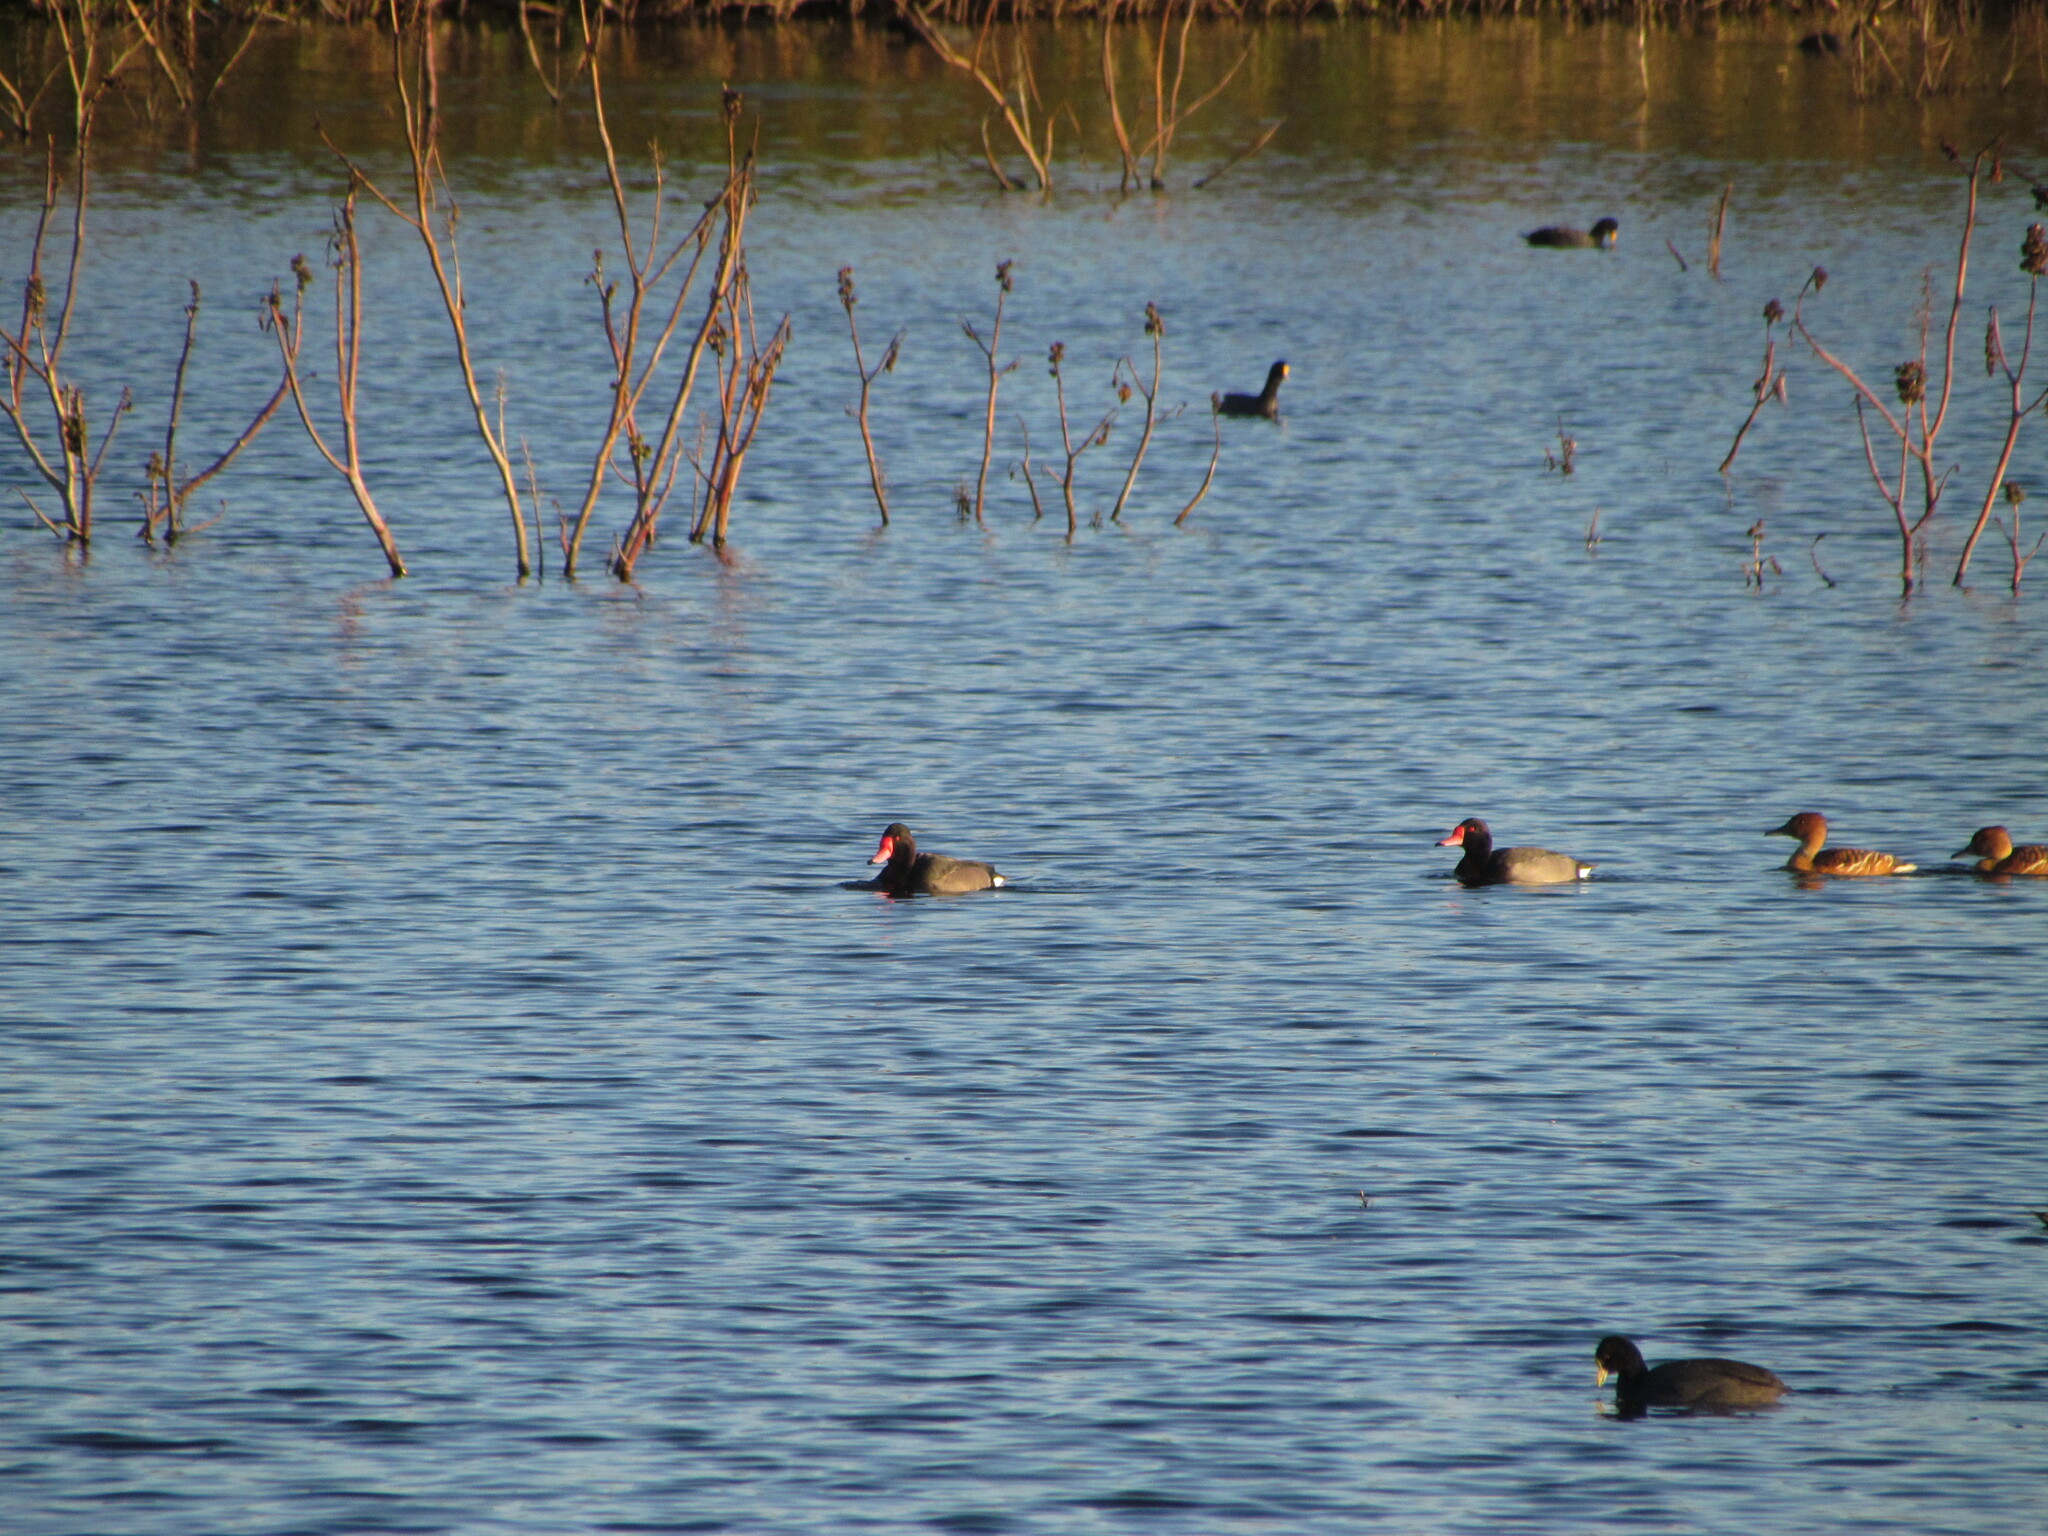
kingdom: Animalia
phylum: Chordata
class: Aves
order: Anseriformes
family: Anatidae
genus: Netta
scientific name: Netta peposaca
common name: Rosy-billed pochard
